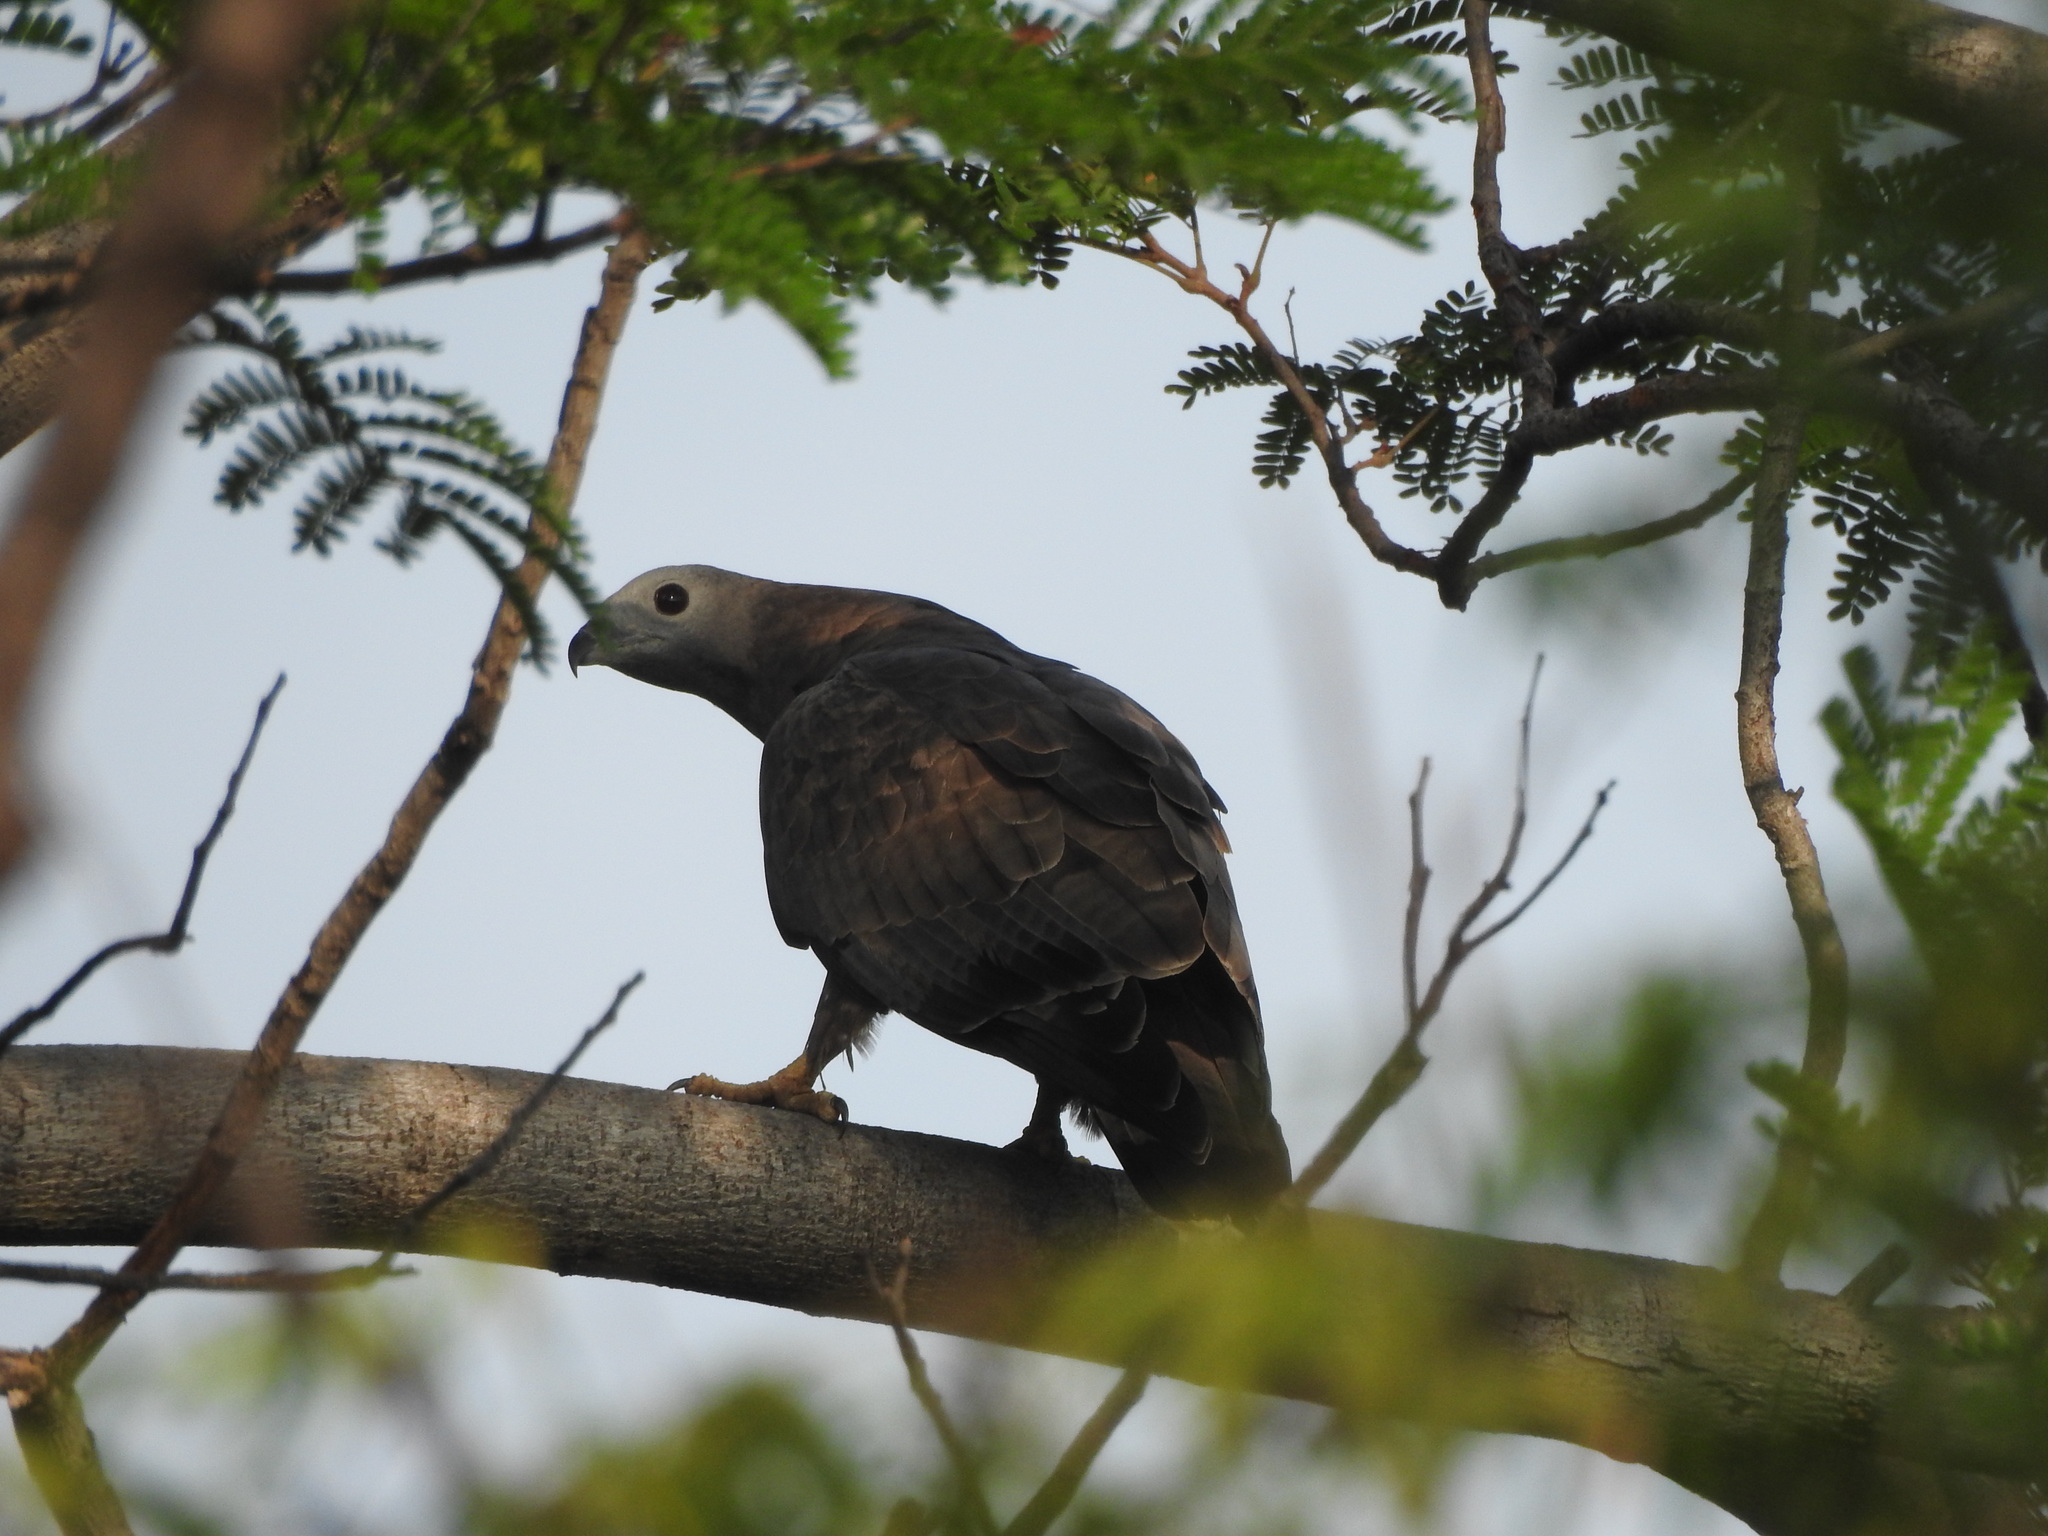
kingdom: Animalia
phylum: Chordata
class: Aves
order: Accipitriformes
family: Accipitridae
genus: Pernis
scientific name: Pernis ptilorhynchus
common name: Crested honey buzzard
